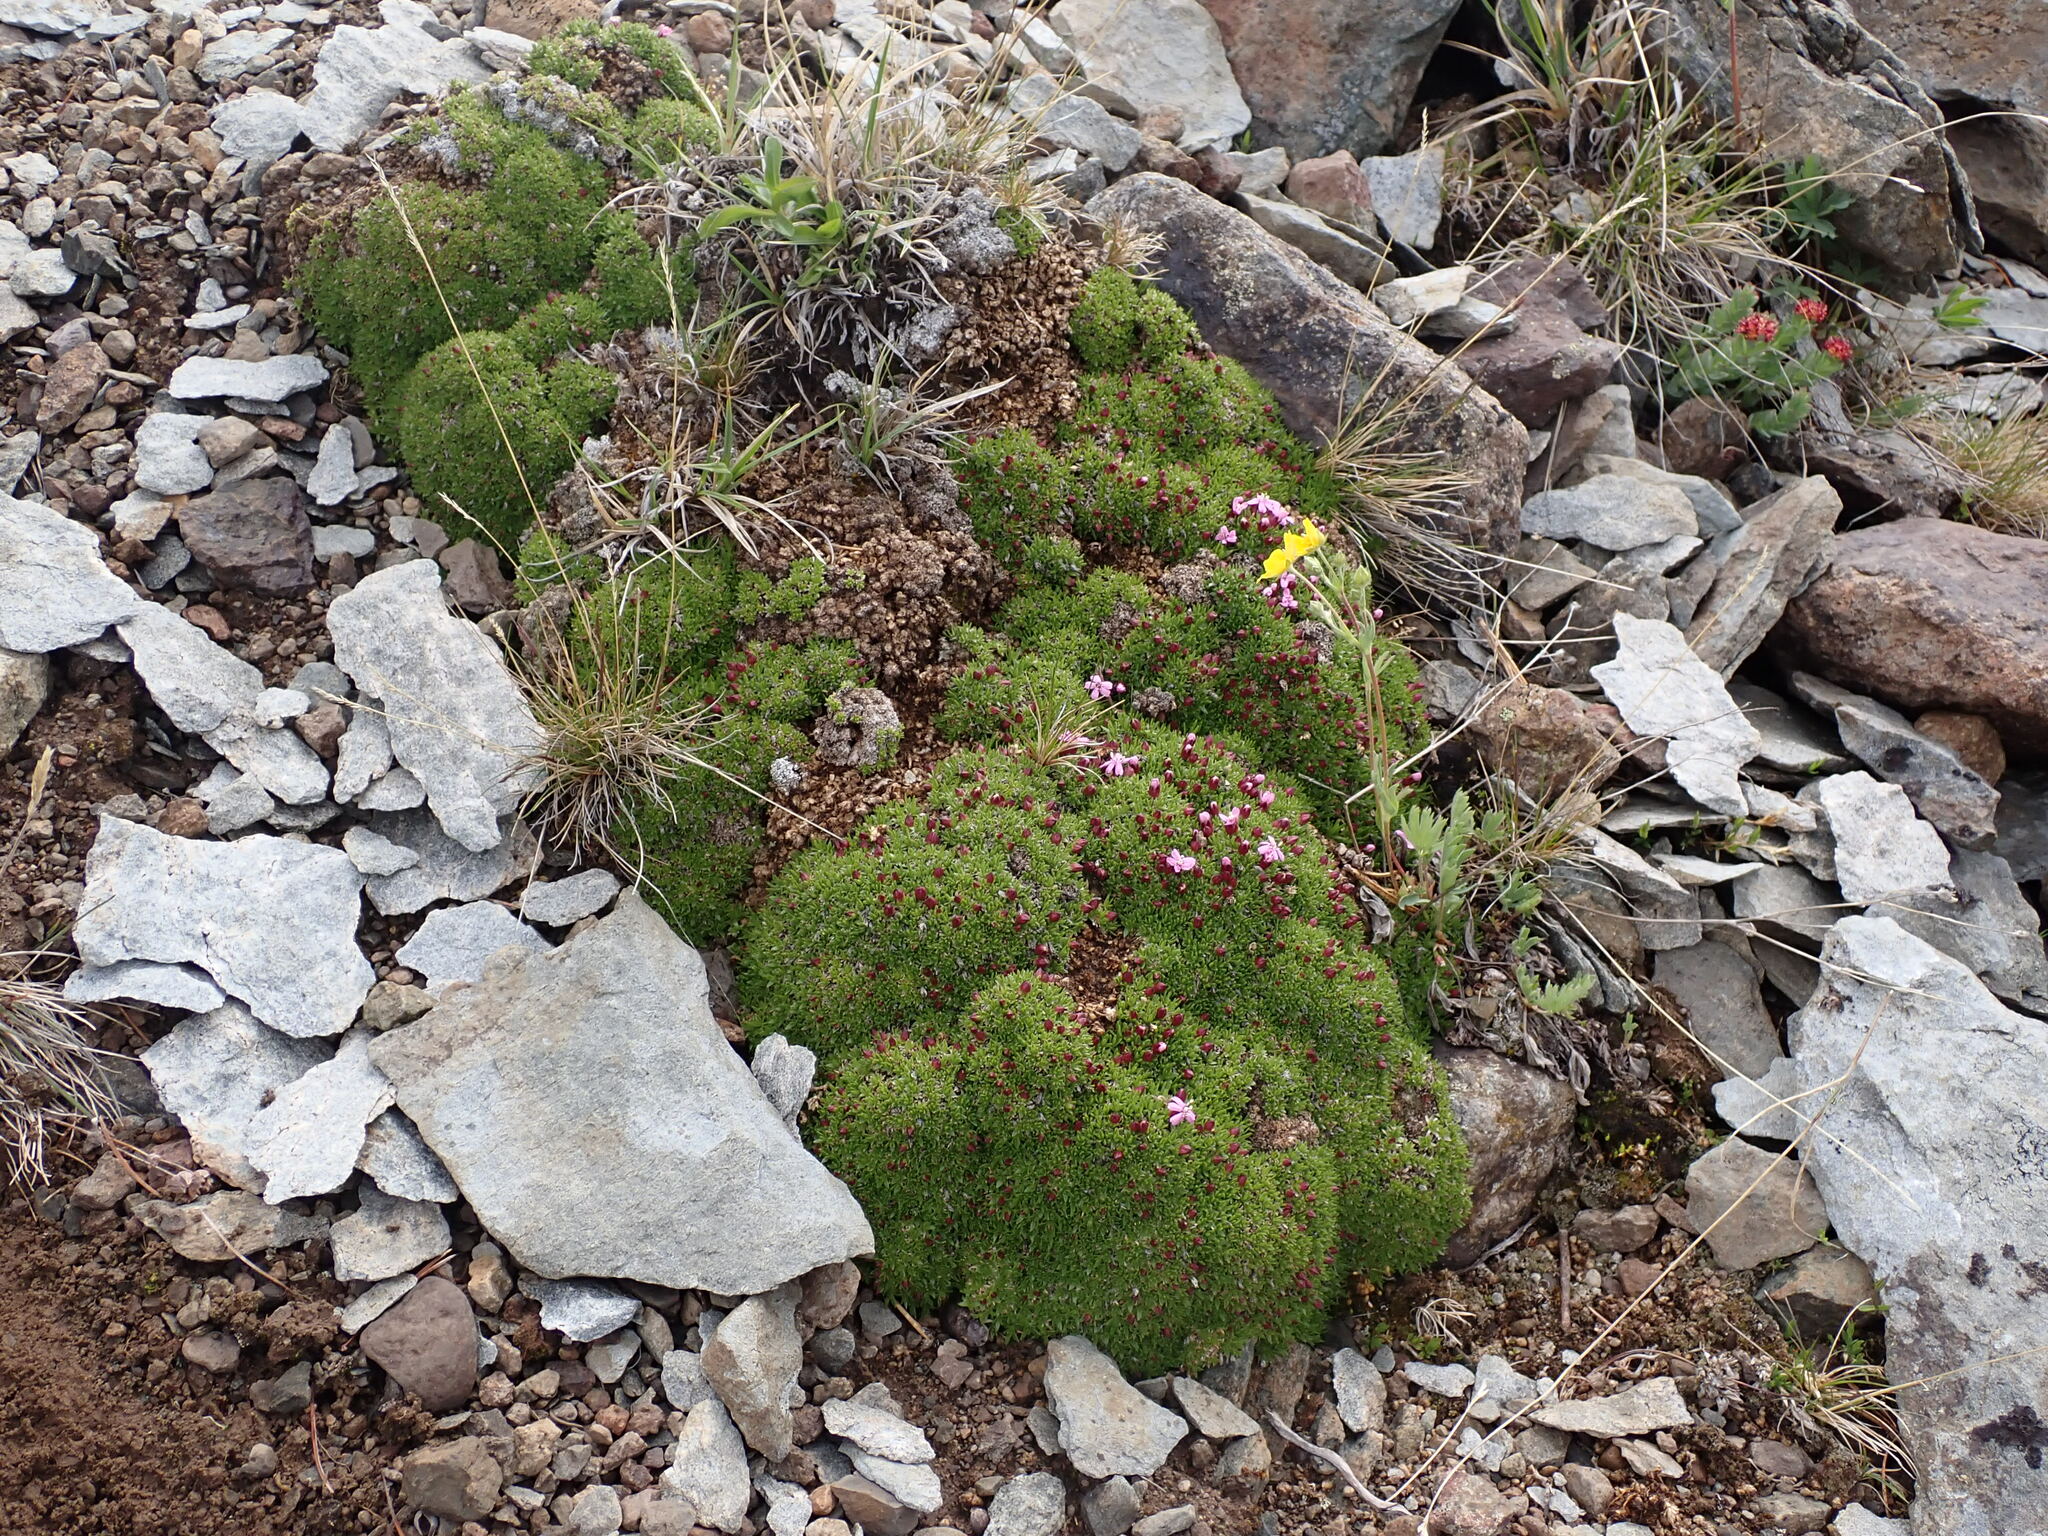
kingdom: Plantae
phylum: Tracheophyta
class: Magnoliopsida
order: Caryophyllales
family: Caryophyllaceae
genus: Silene
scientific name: Silene acaulis
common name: Moss campion
